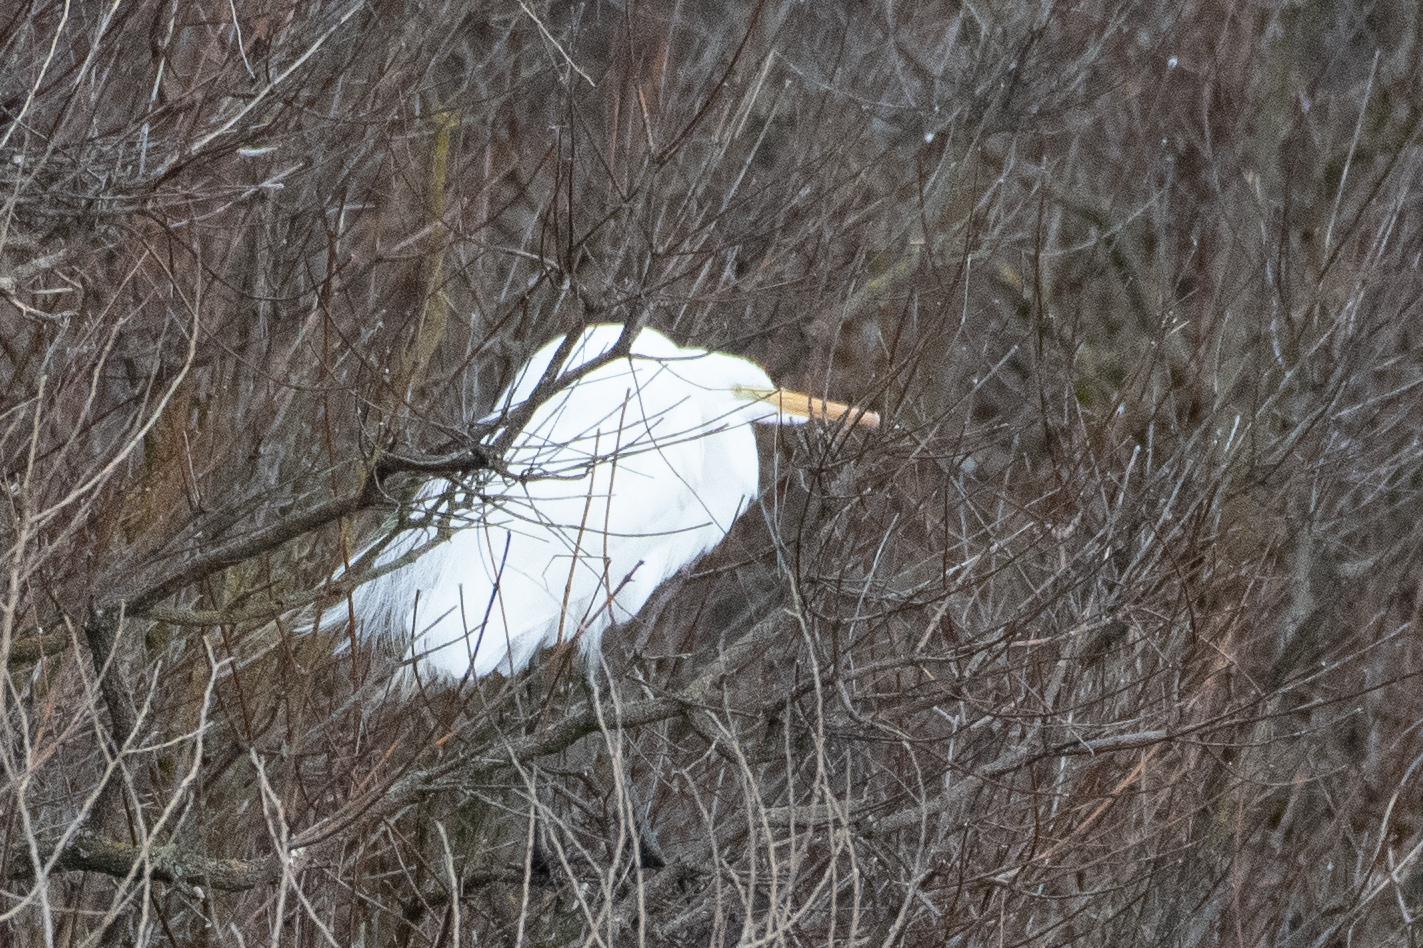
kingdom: Animalia
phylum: Chordata
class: Aves
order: Pelecaniformes
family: Ardeidae
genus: Ardea
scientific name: Ardea alba
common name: Great egret
